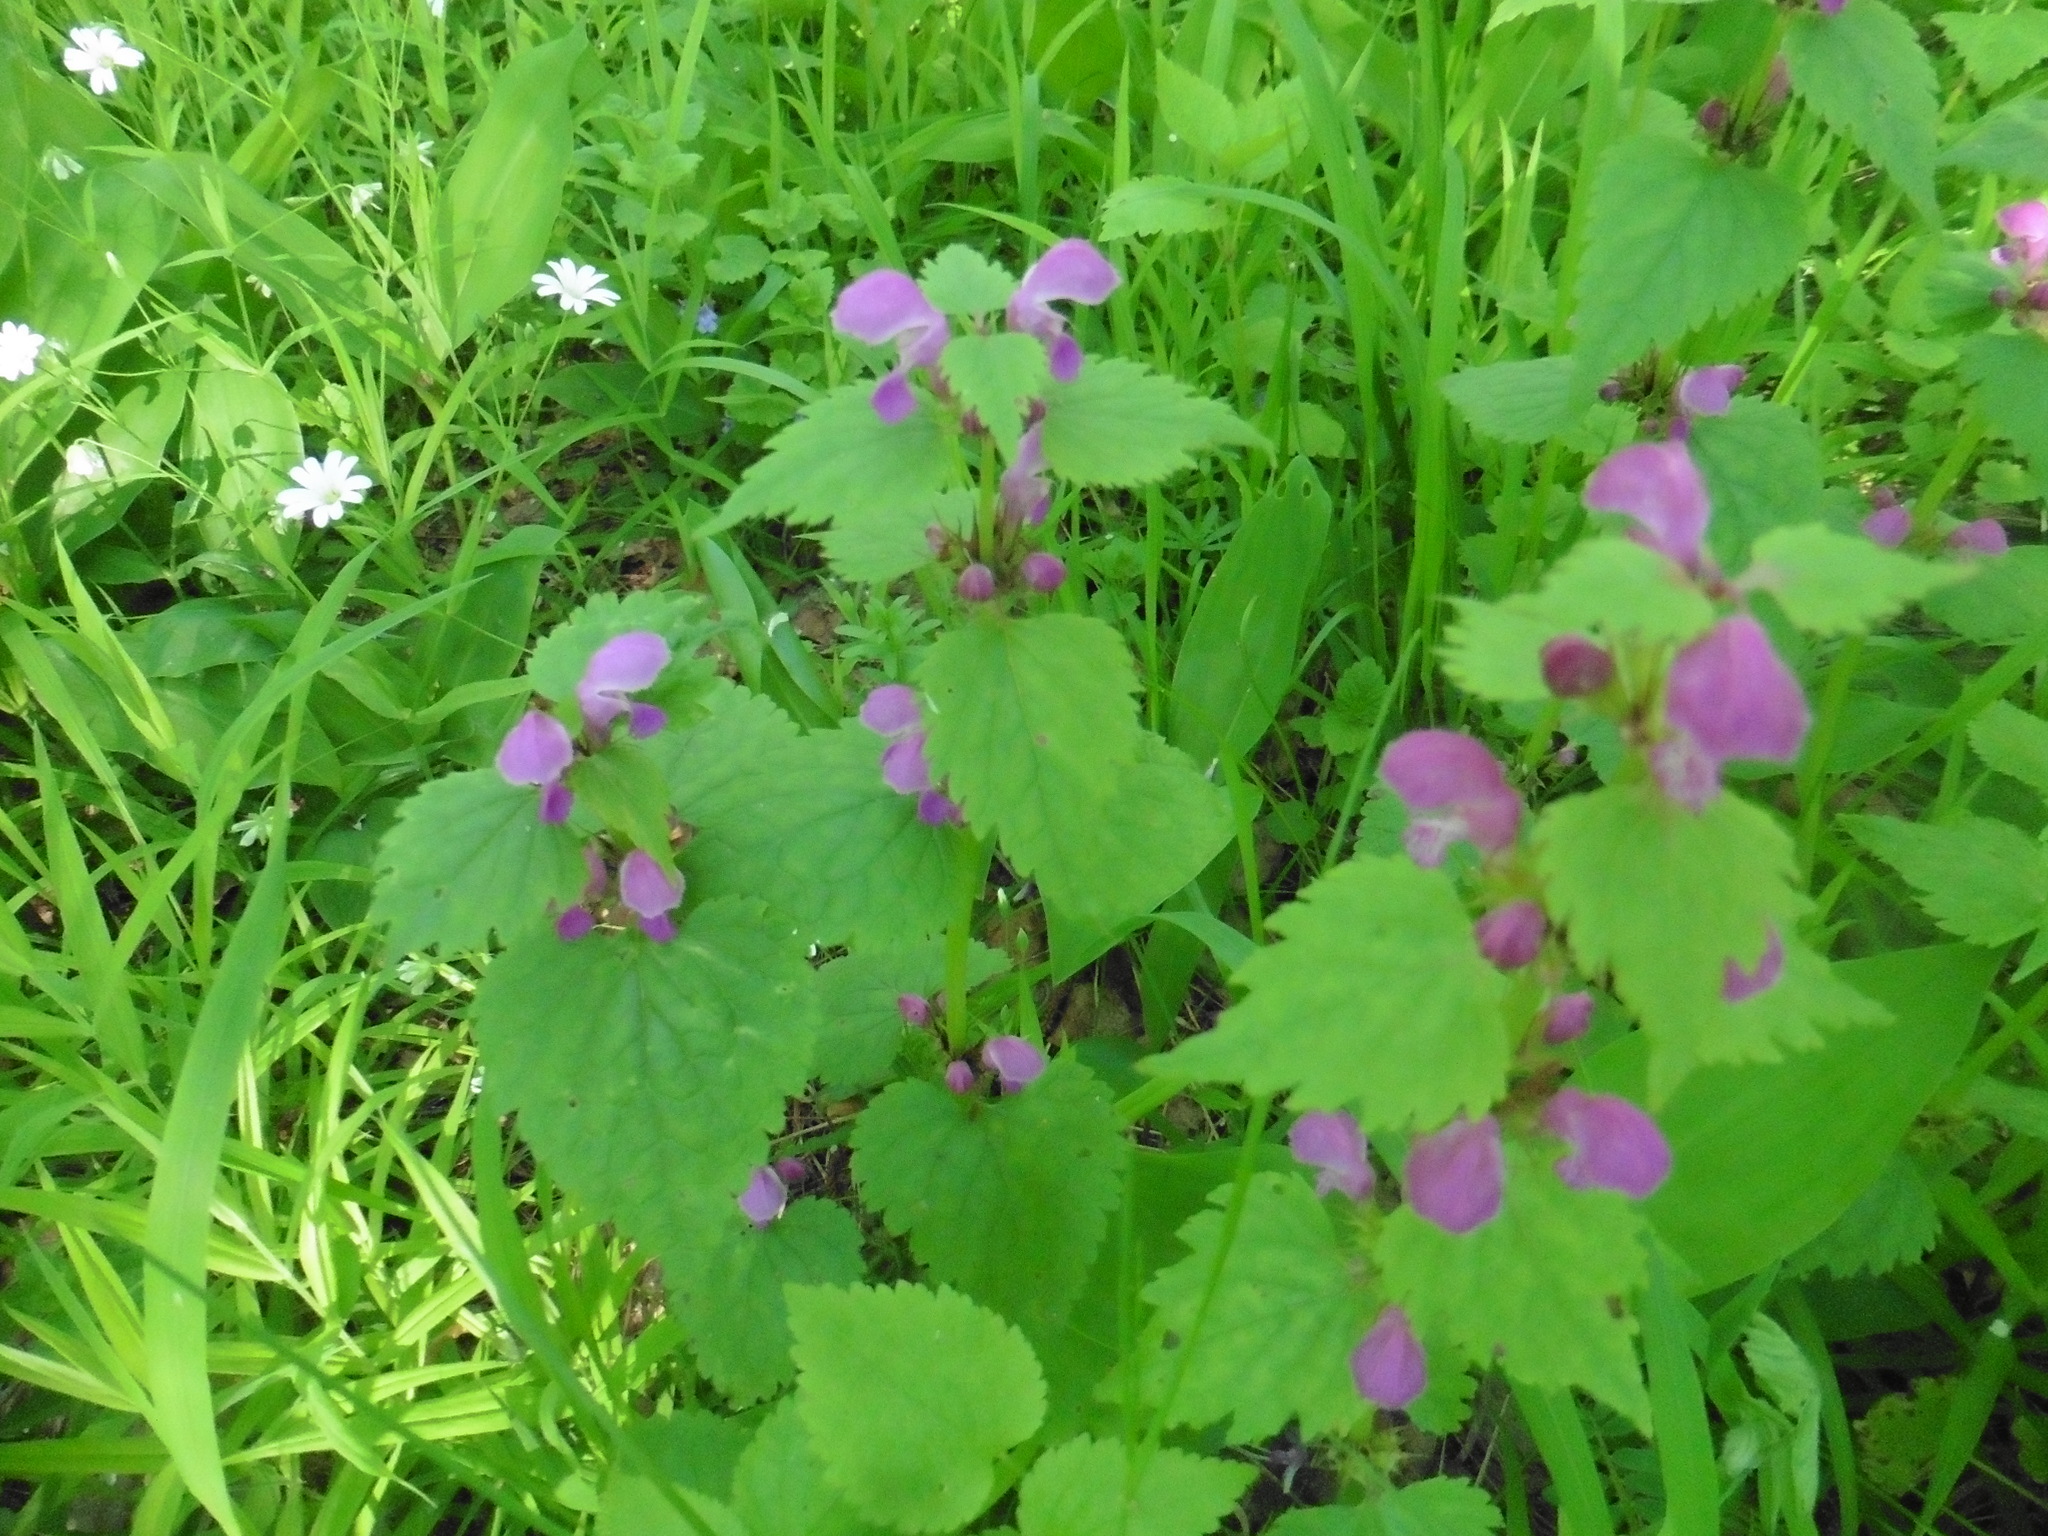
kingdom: Plantae
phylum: Tracheophyta
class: Magnoliopsida
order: Lamiales
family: Lamiaceae
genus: Lamium
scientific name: Lamium maculatum
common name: Spotted dead-nettle
